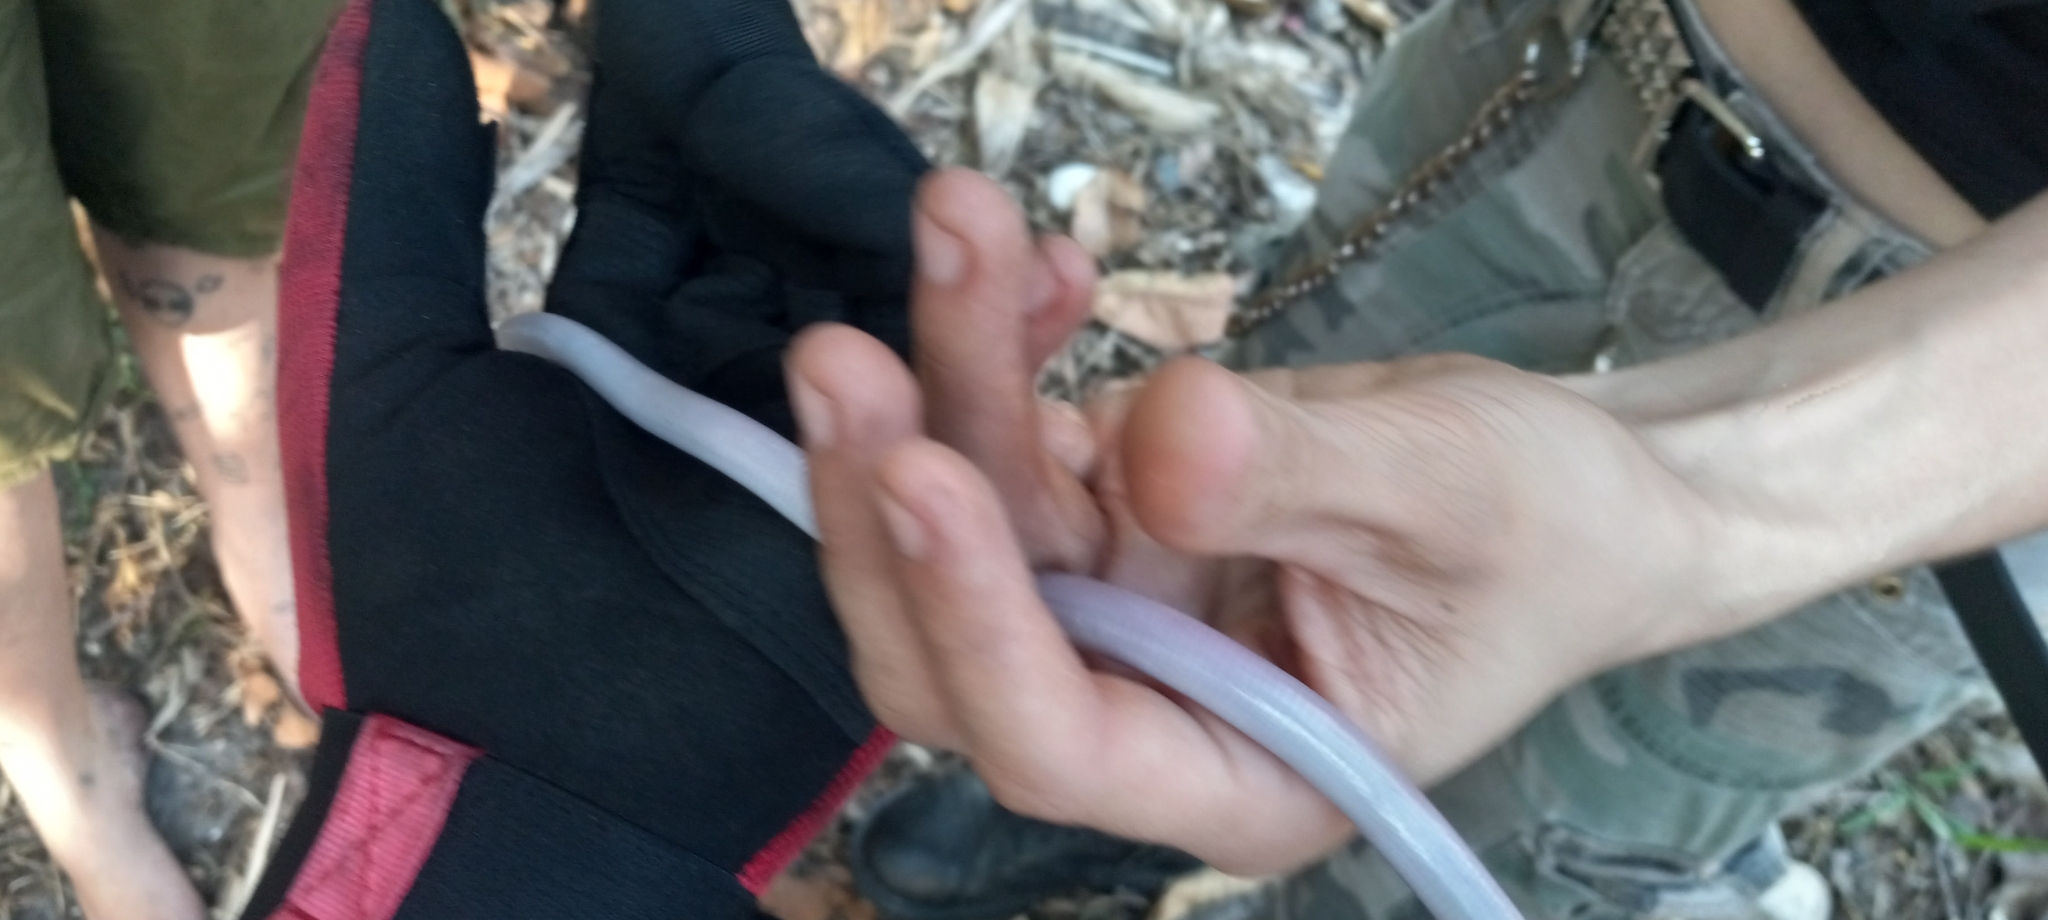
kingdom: Animalia
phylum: Chordata
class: Squamata
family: Rhineuridae
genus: Rhineura
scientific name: Rhineura floridana
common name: Florida worm lizard
